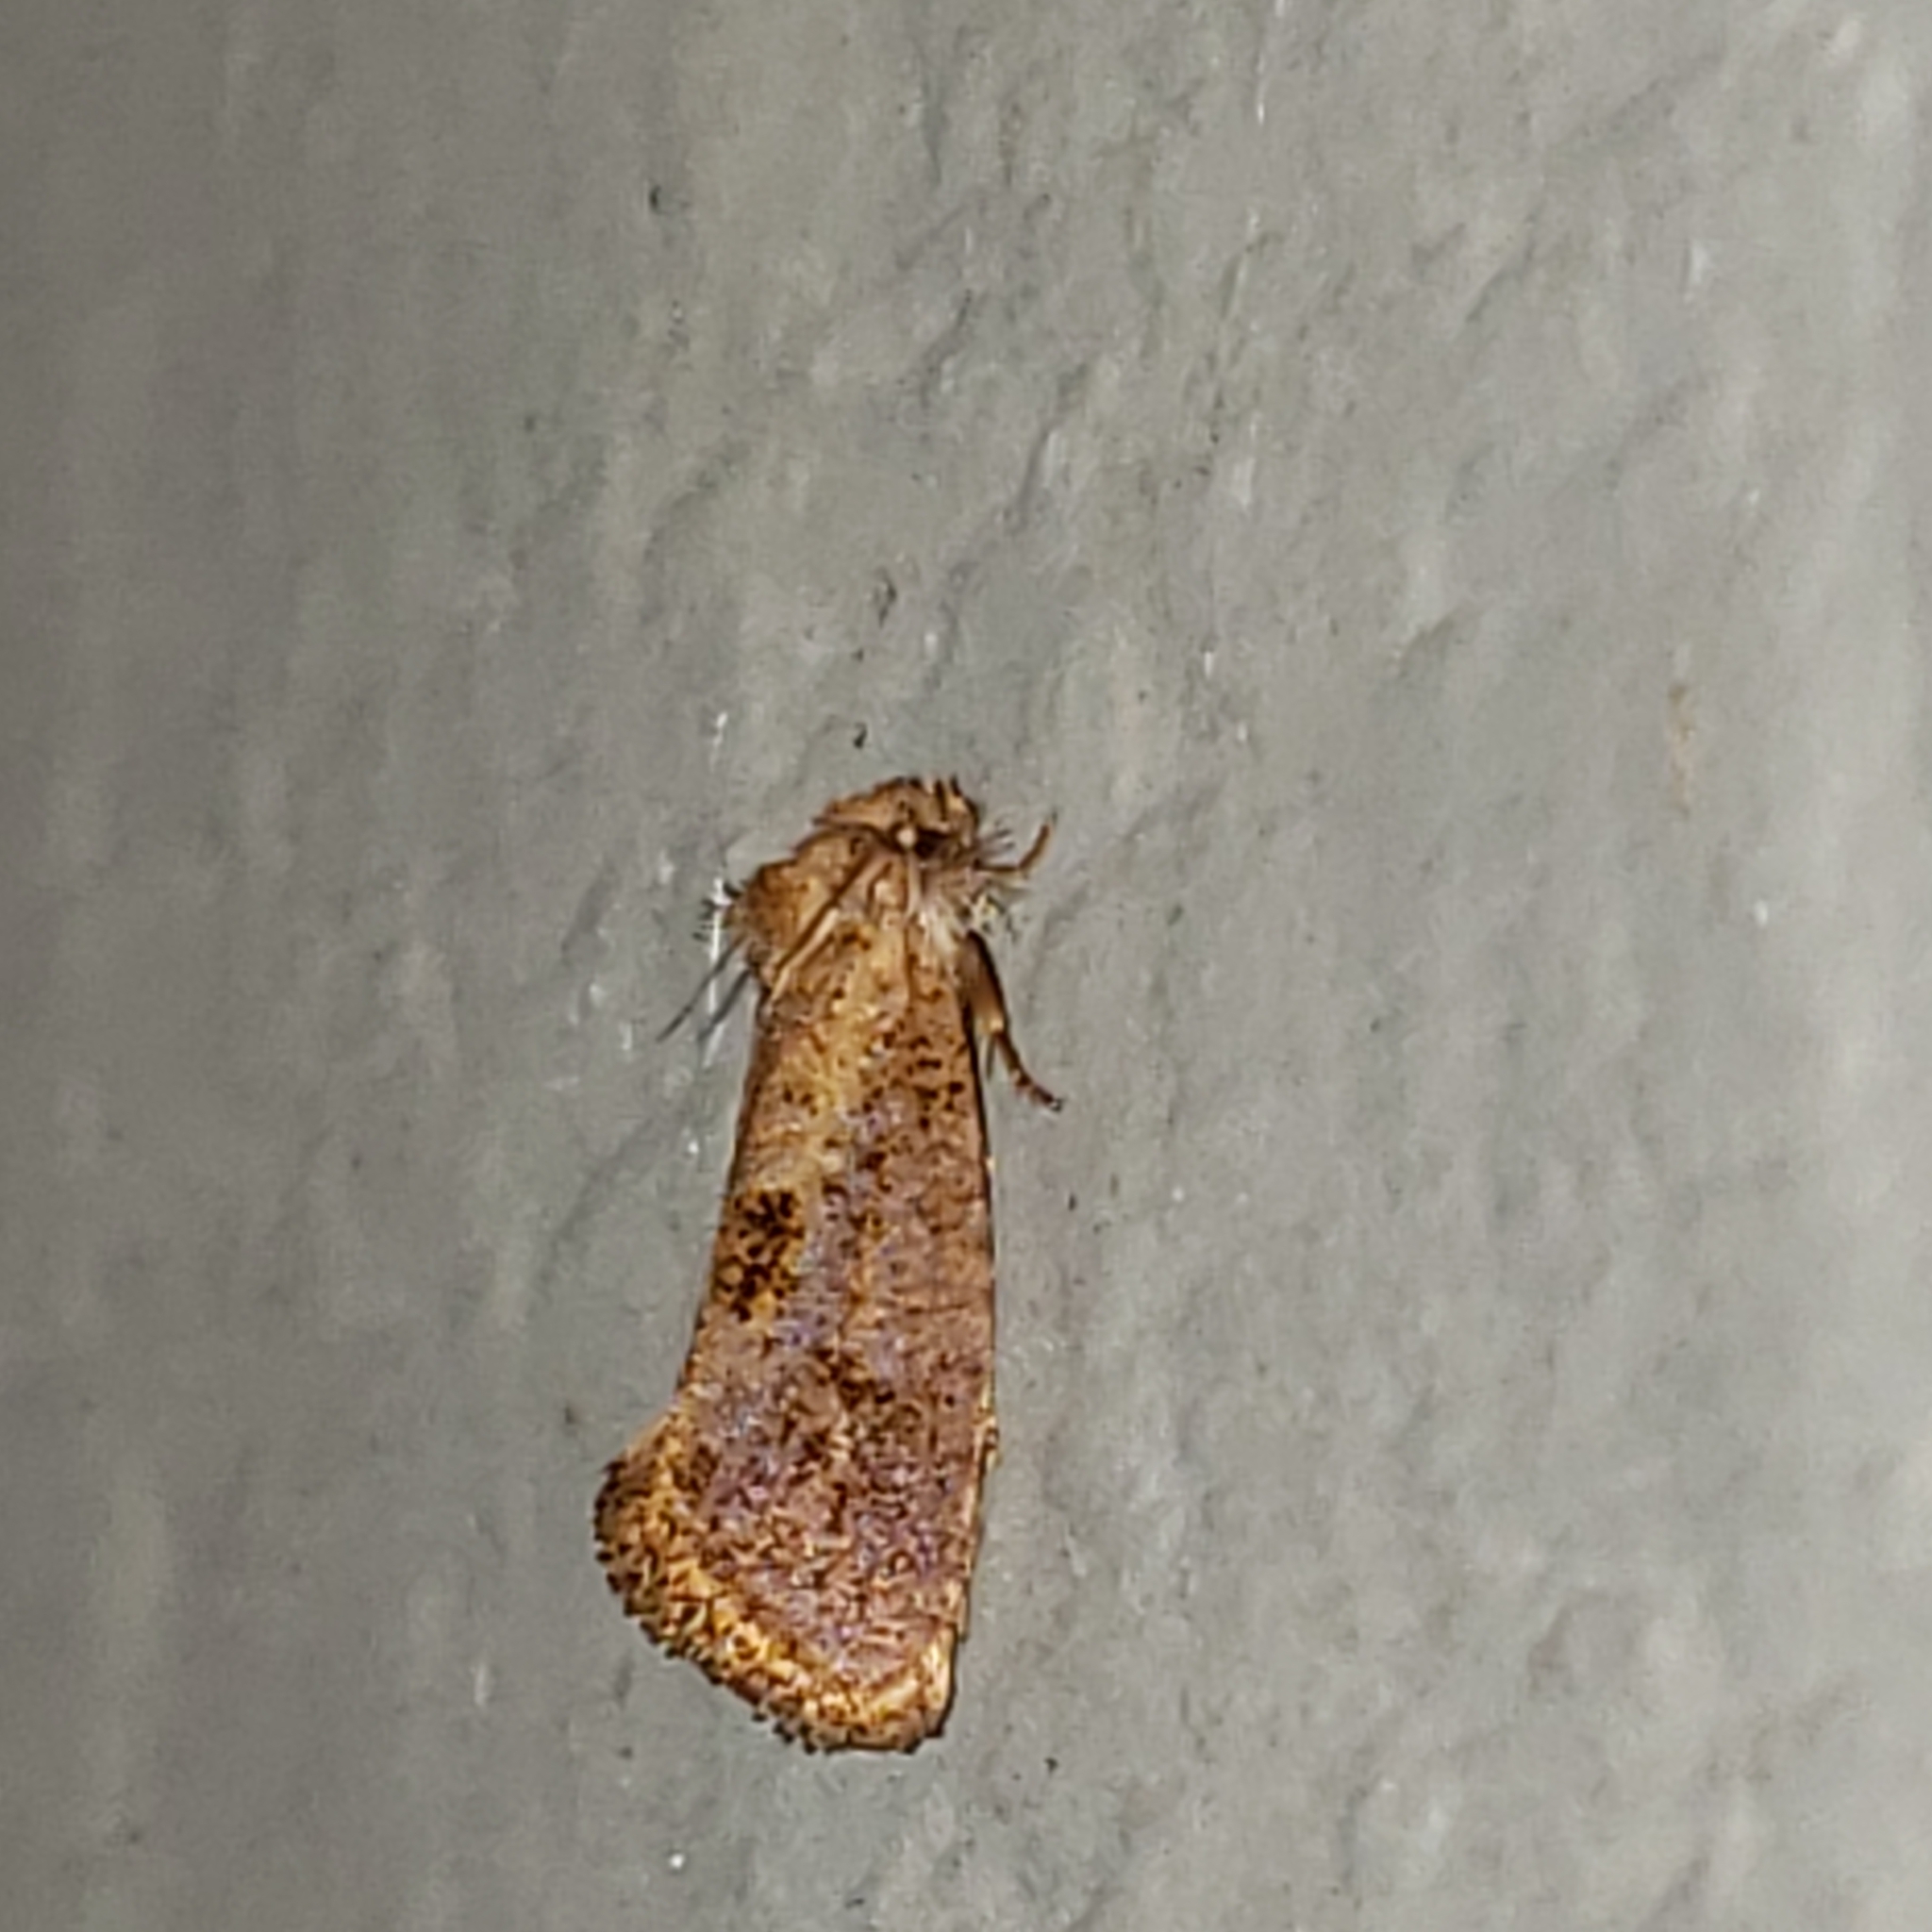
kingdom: Animalia
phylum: Arthropoda
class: Insecta
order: Lepidoptera
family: Tineidae
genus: Acrolophus
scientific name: Acrolophus panamae
